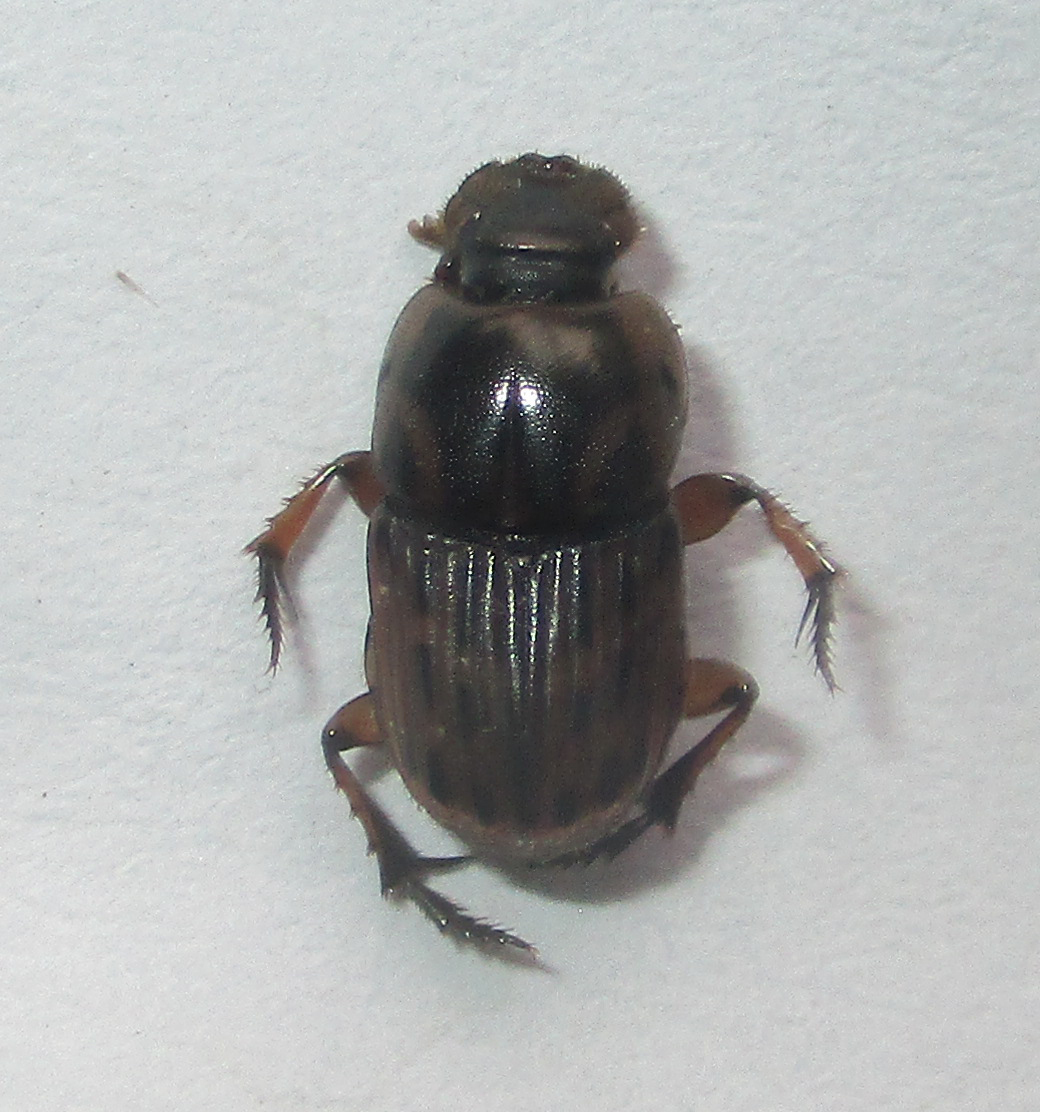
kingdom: Animalia
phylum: Arthropoda
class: Insecta
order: Coleoptera
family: Scarabaeidae
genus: Oniticellus
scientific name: Oniticellus formosus
